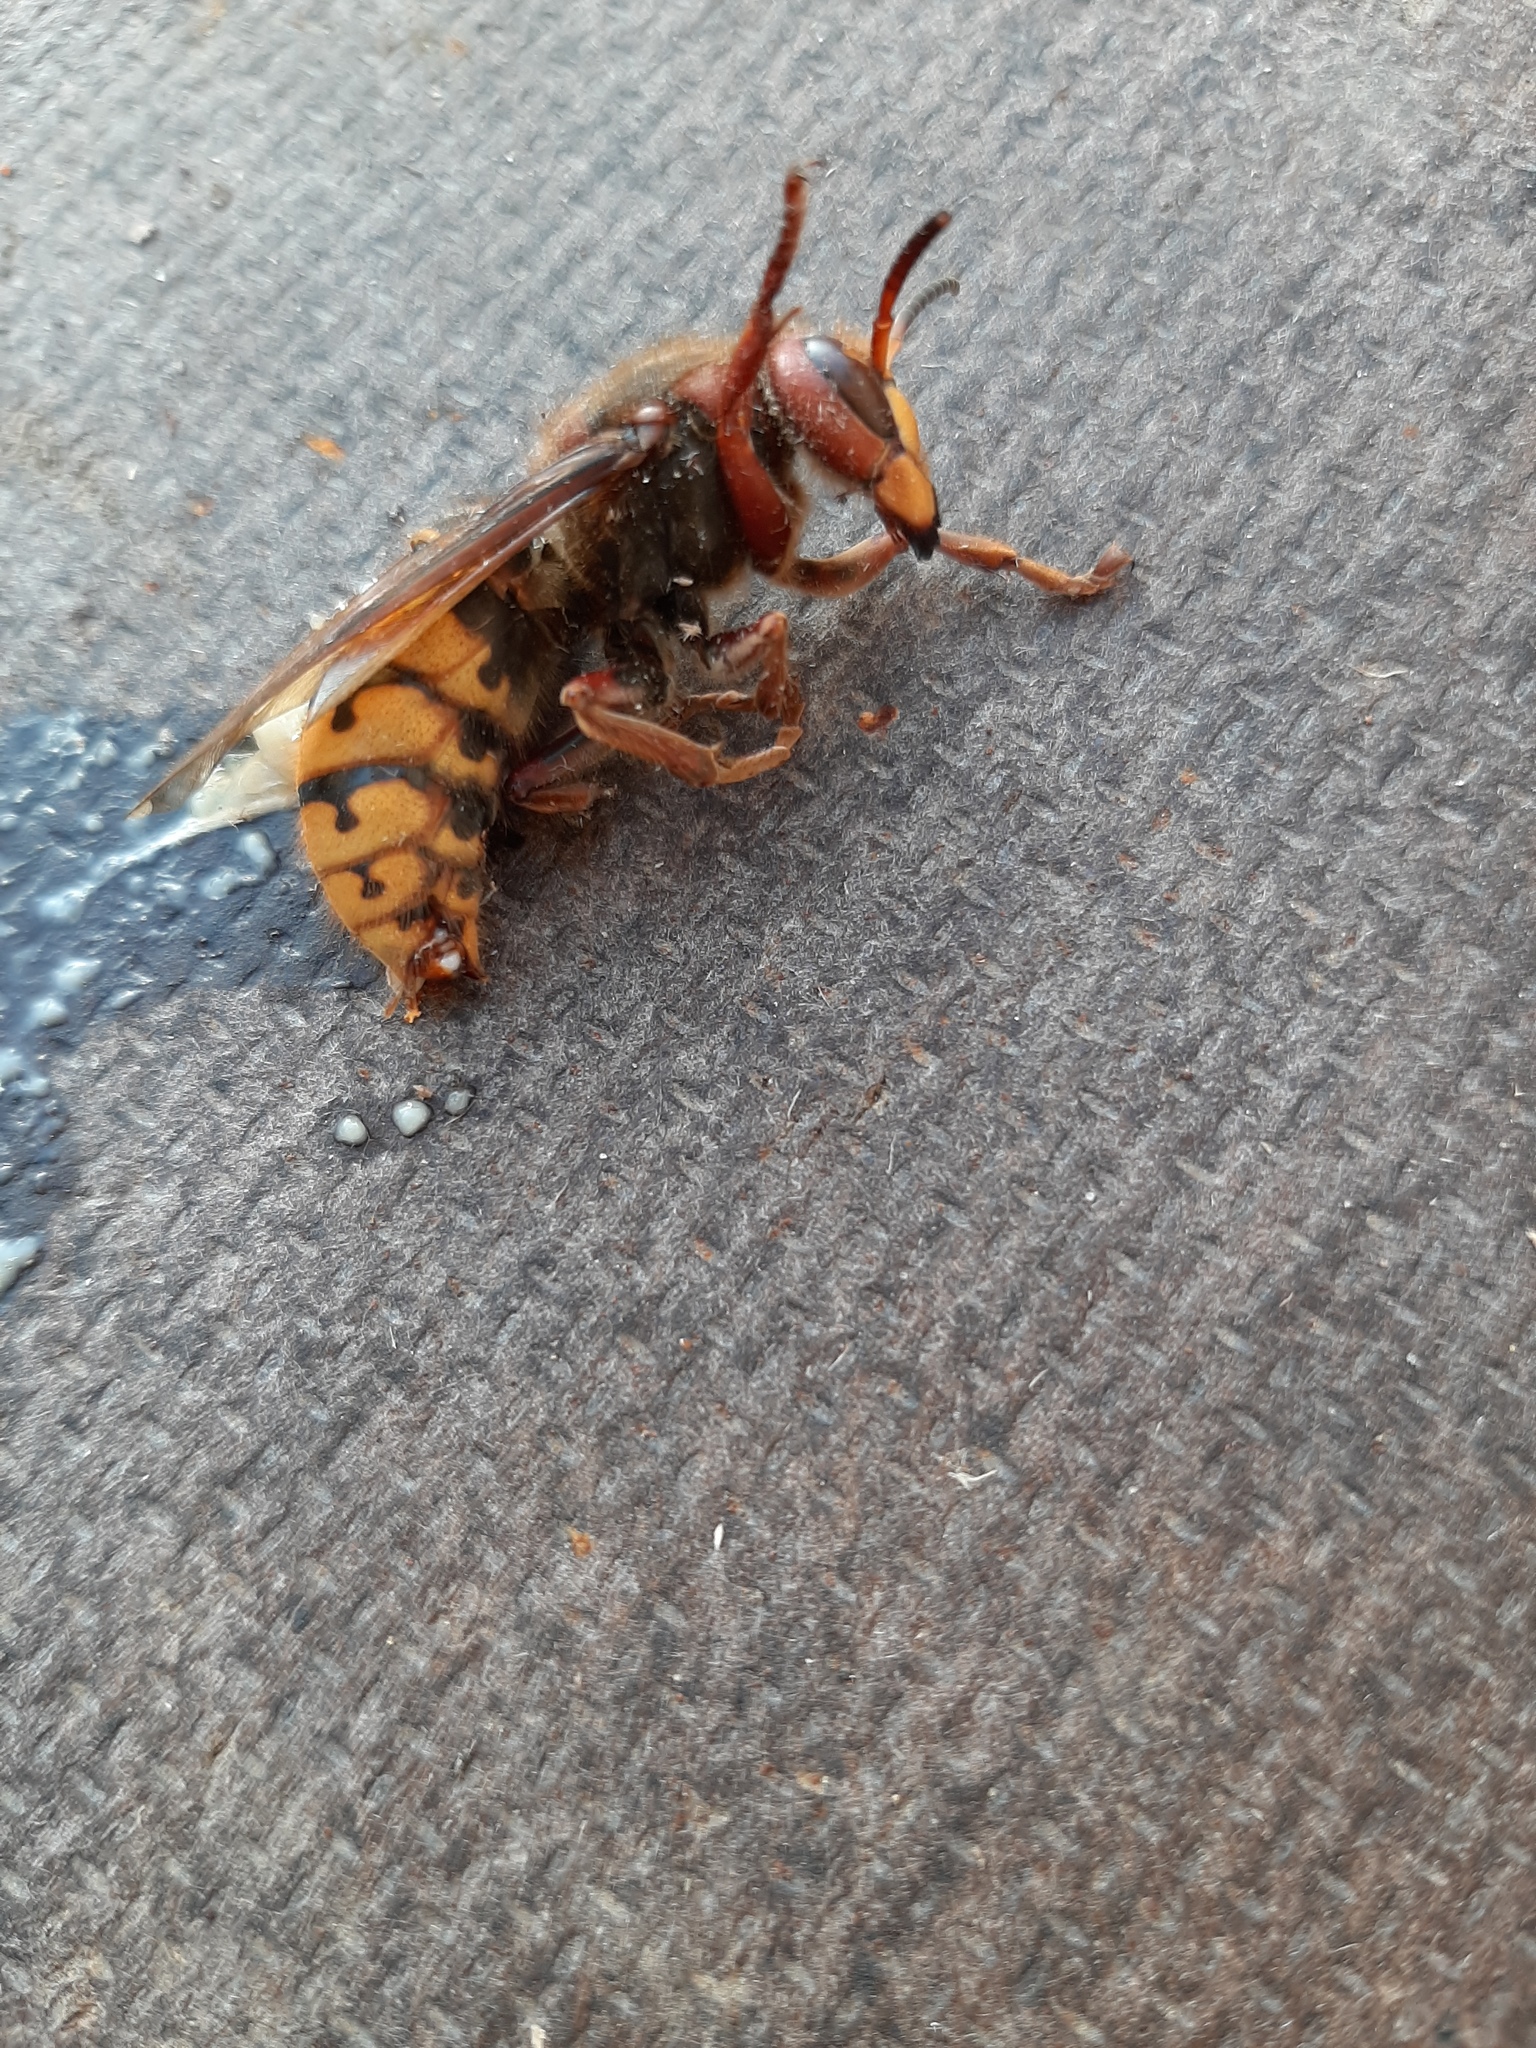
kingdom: Animalia
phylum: Arthropoda
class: Insecta
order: Hymenoptera
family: Vespidae
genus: Vespa
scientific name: Vespa crabro
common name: Hornet
